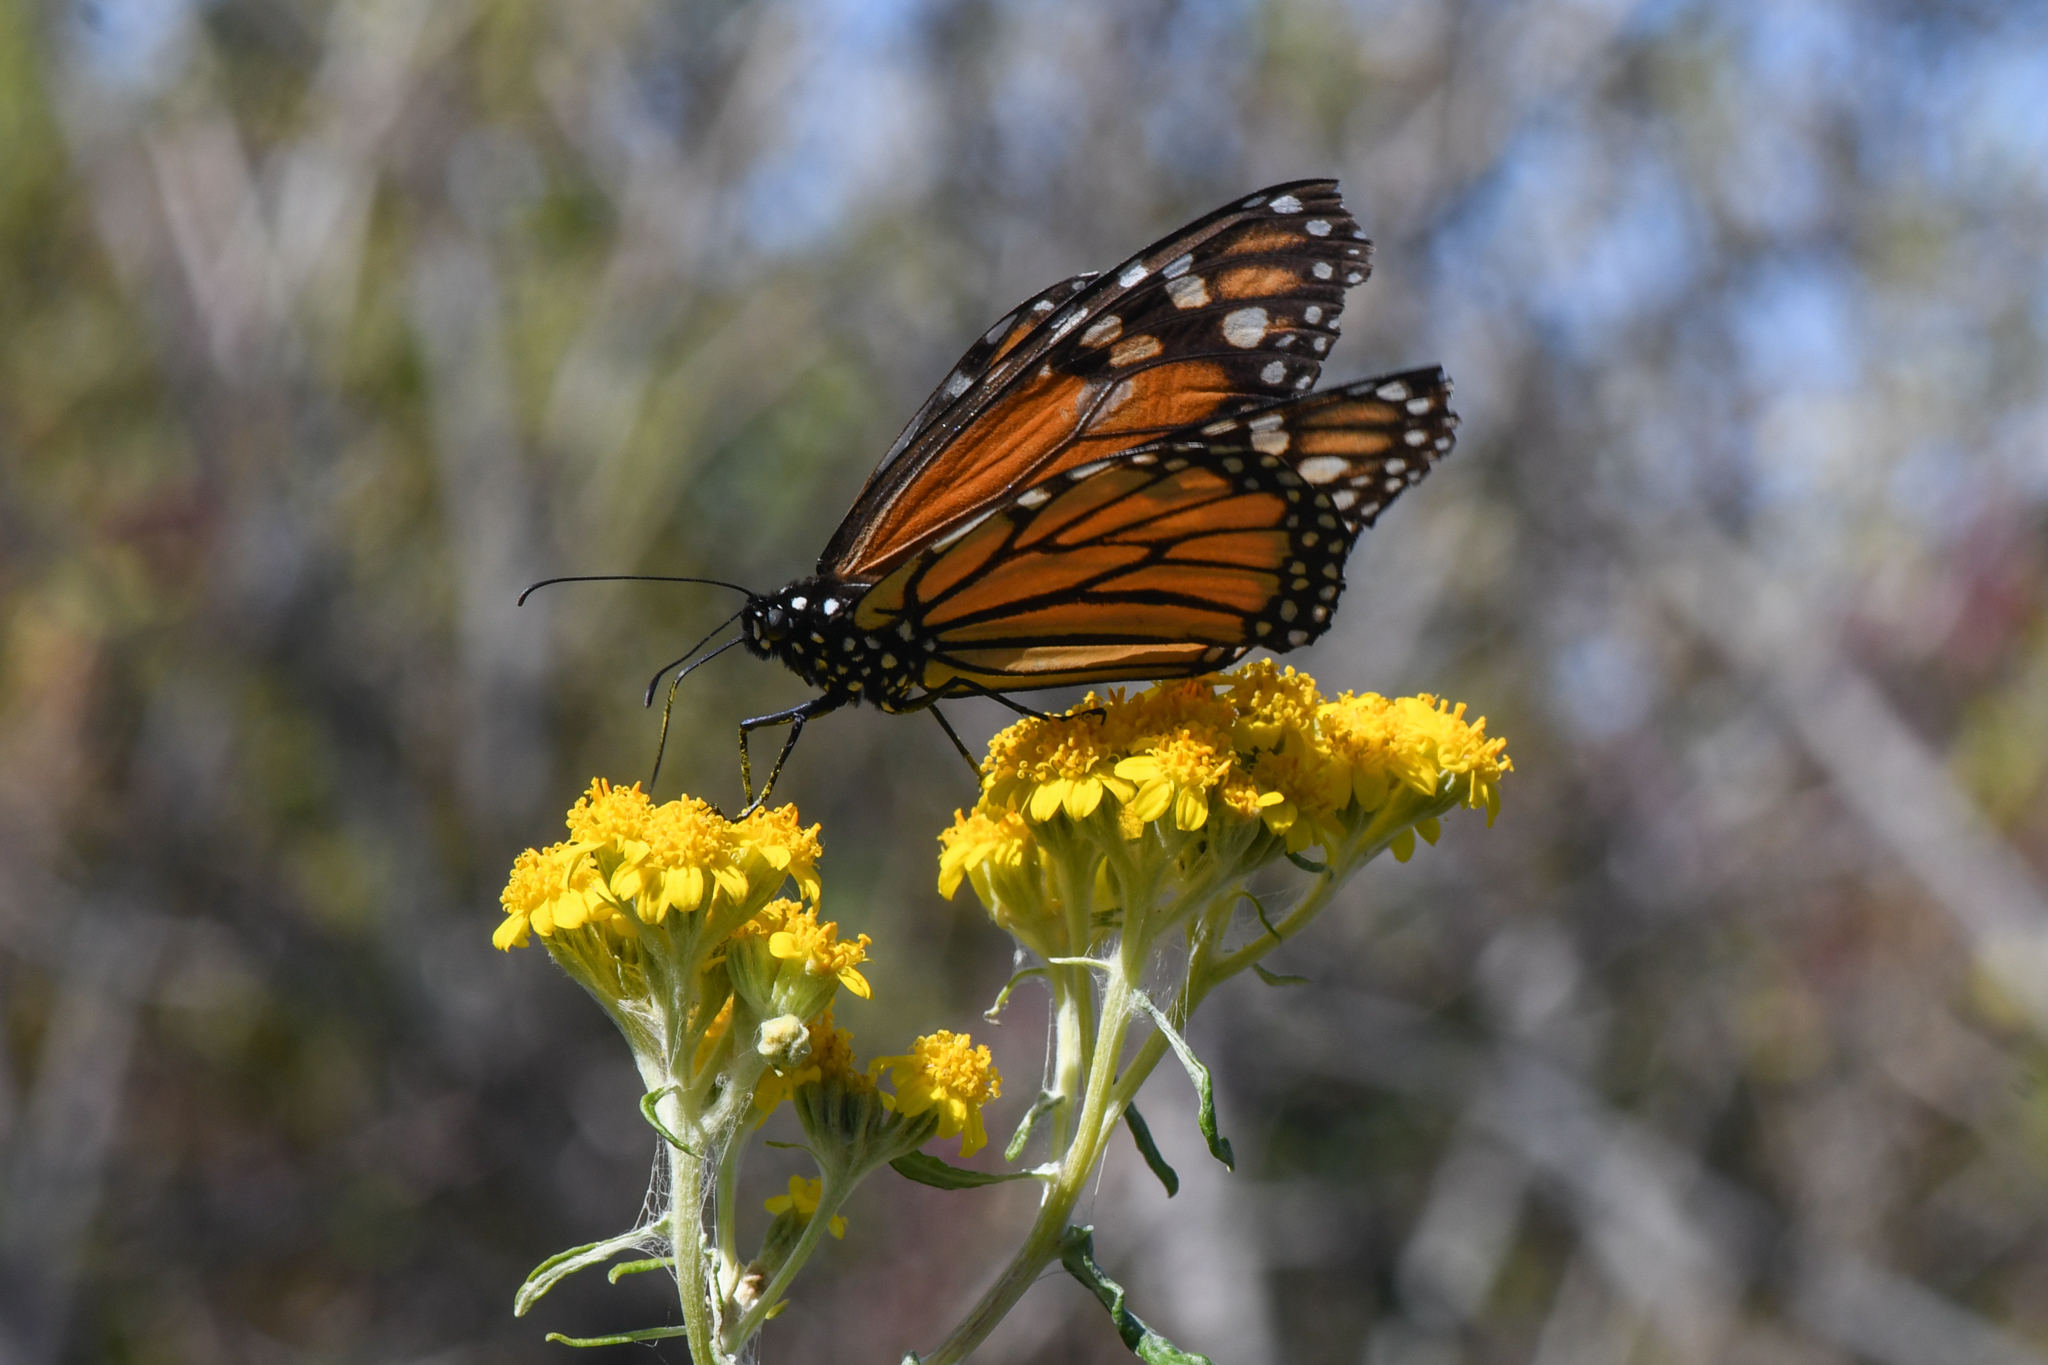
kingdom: Animalia
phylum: Arthropoda
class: Insecta
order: Lepidoptera
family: Nymphalidae
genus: Danaus
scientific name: Danaus plexippus
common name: Monarch
